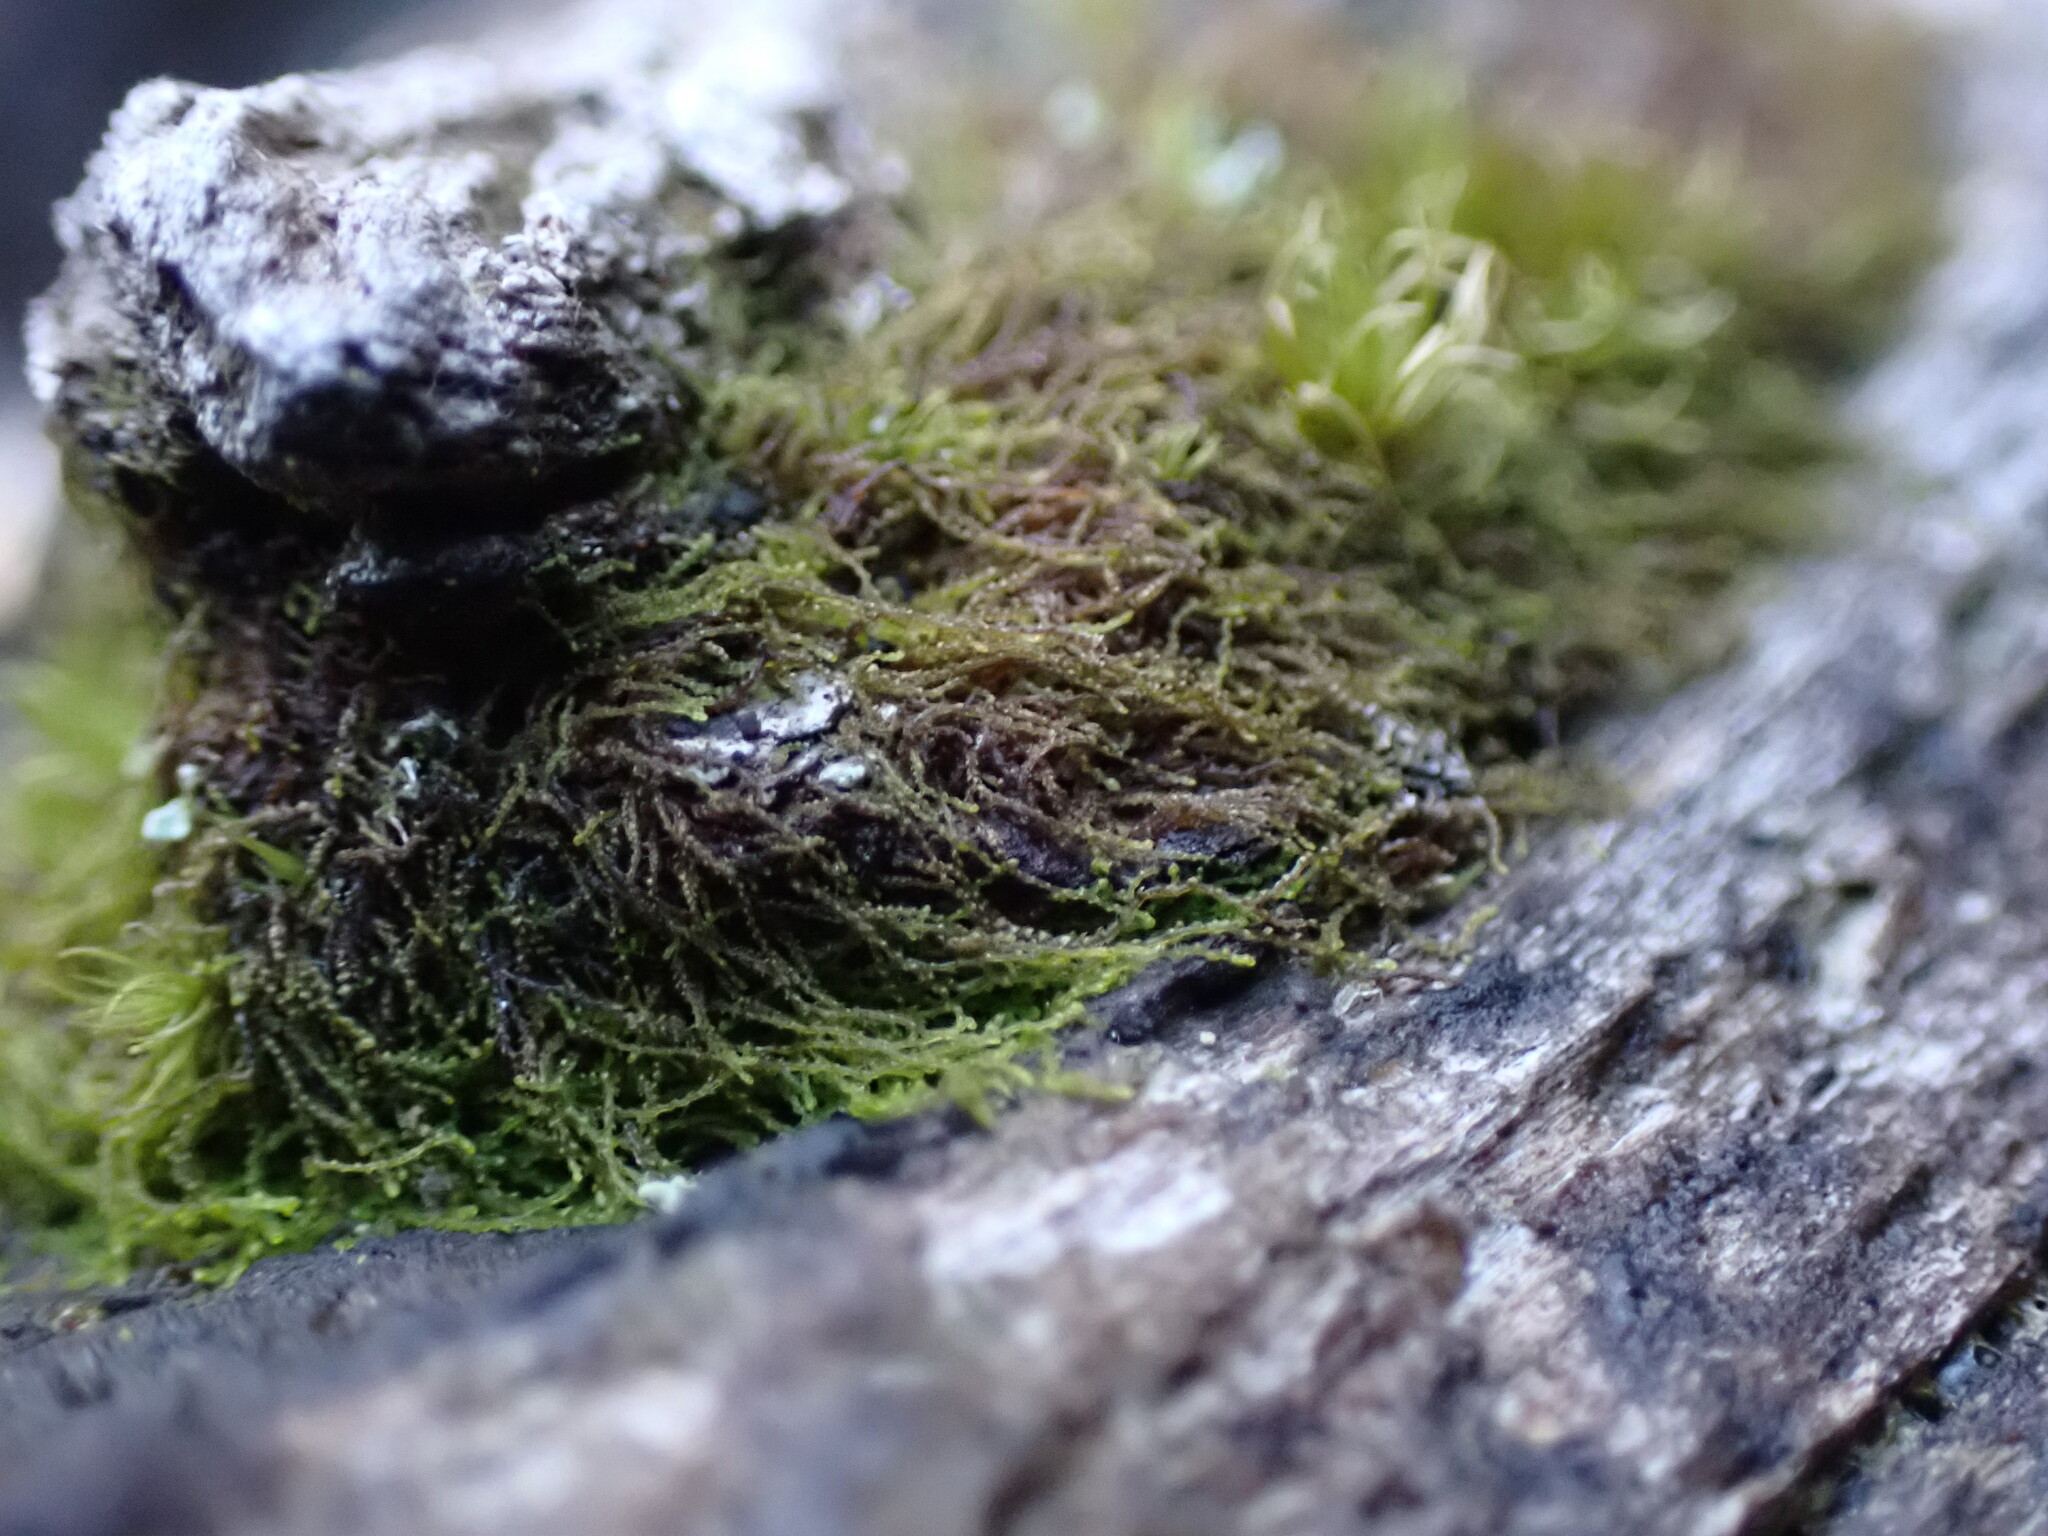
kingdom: Plantae
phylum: Marchantiophyta
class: Jungermanniopsida
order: Jungermanniales
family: Cephaloziellaceae
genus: Cephaloziella
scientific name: Cephaloziella divaricata
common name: Spreading threadwort
